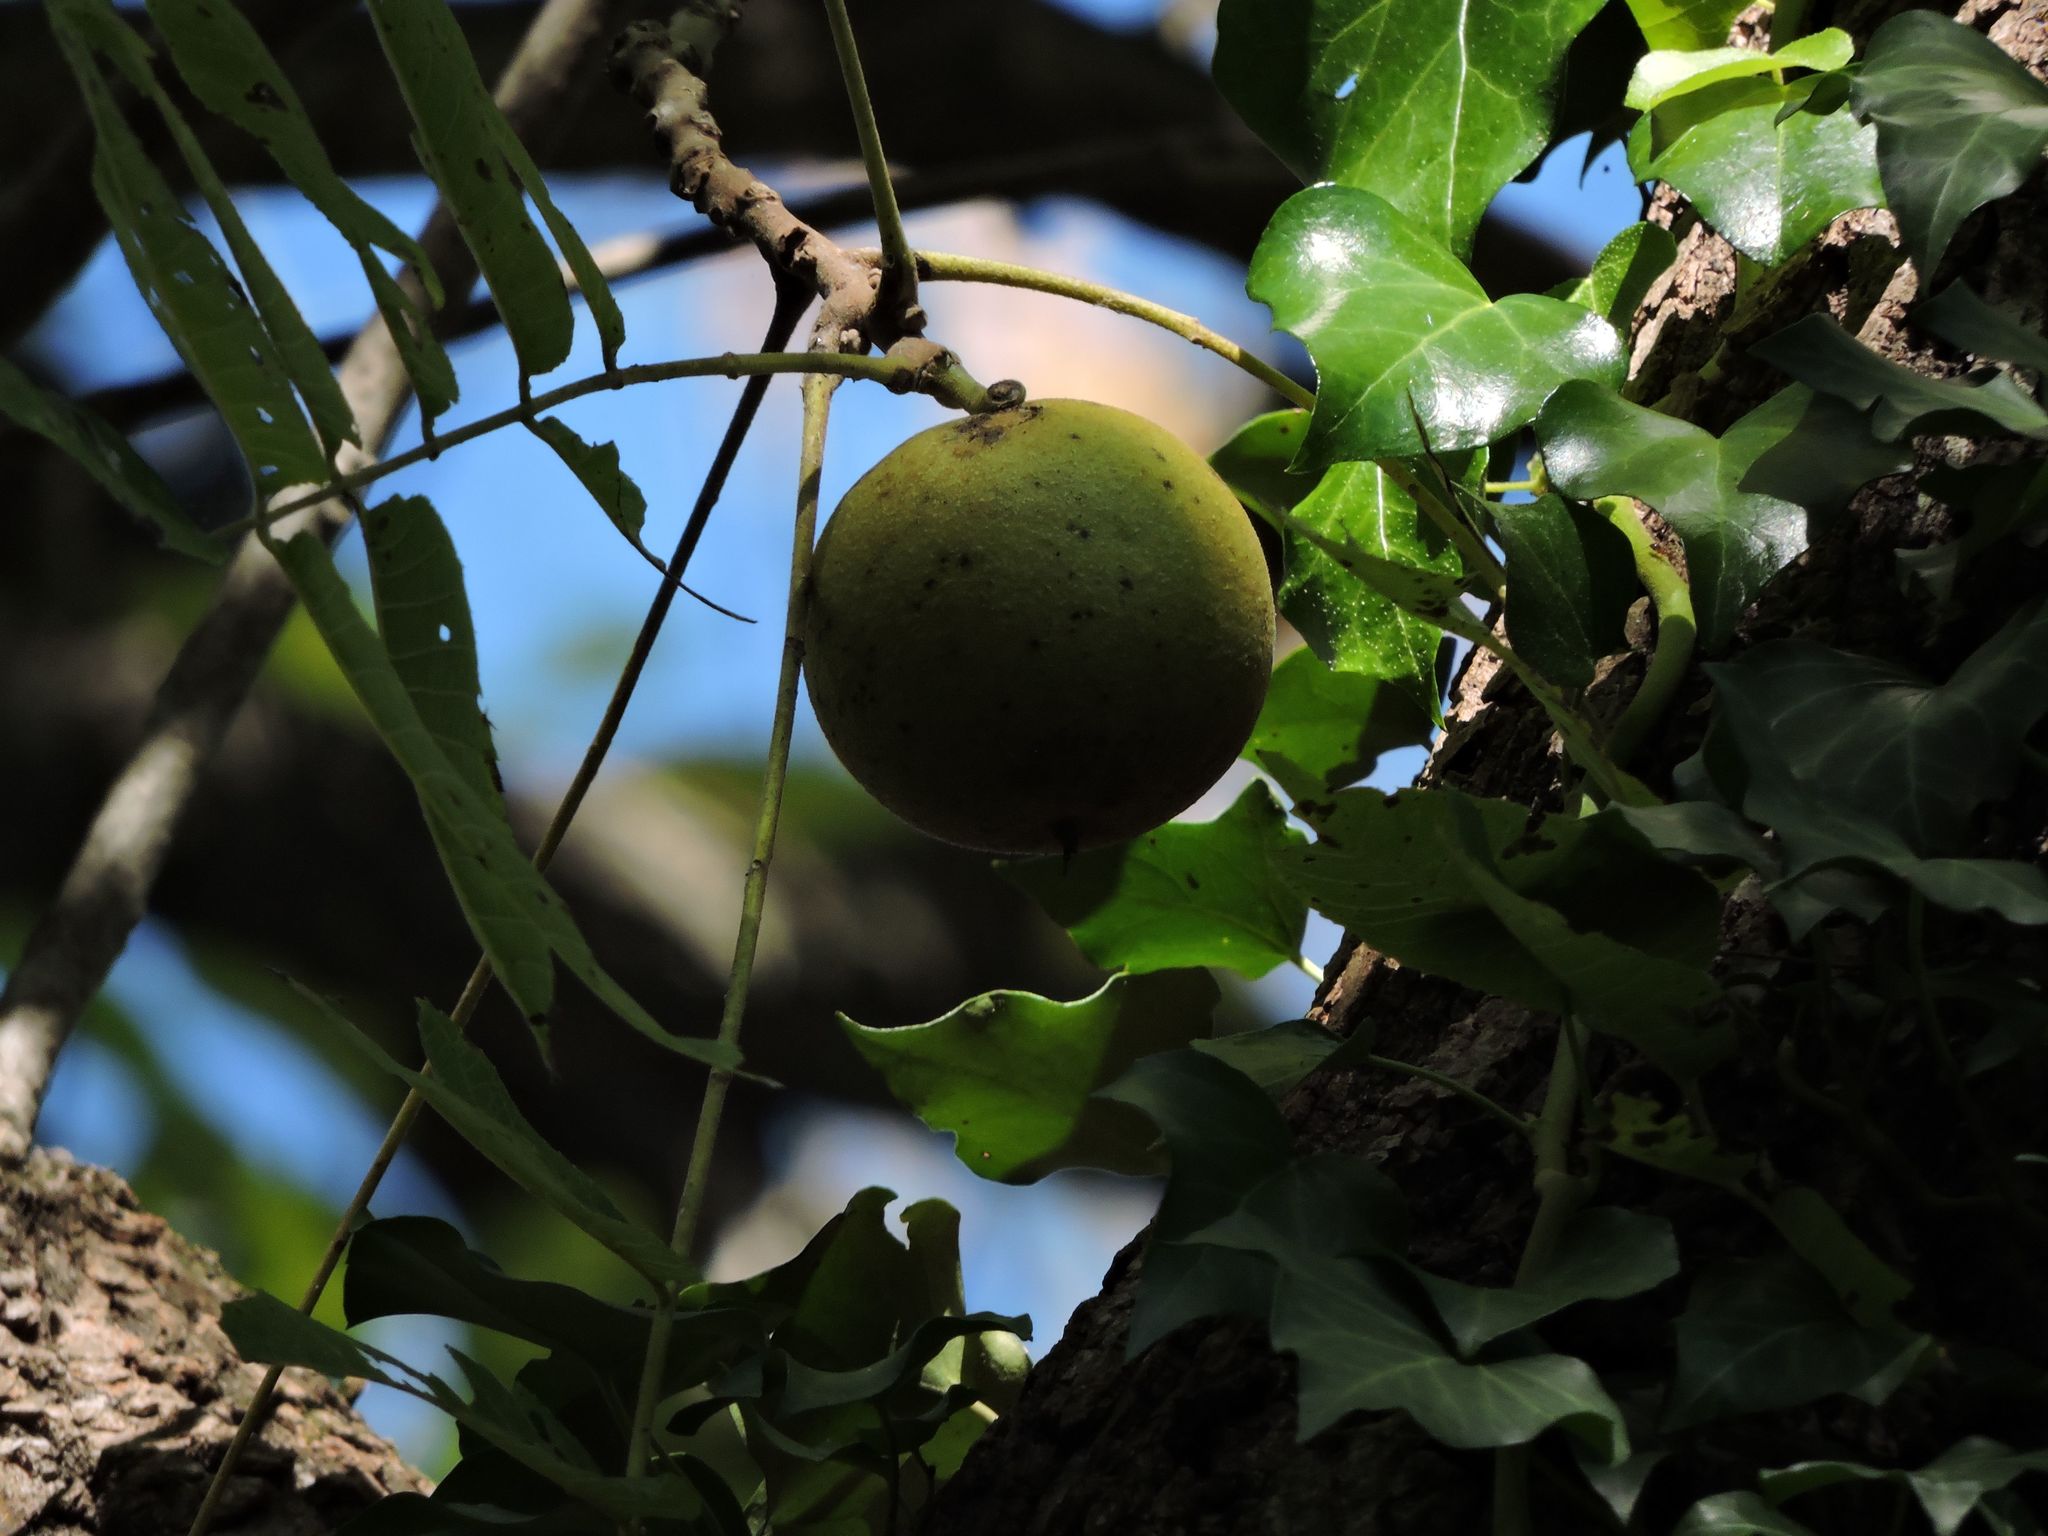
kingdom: Plantae
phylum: Tracheophyta
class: Magnoliopsida
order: Fagales
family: Juglandaceae
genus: Juglans
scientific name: Juglans nigra
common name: Black walnut
